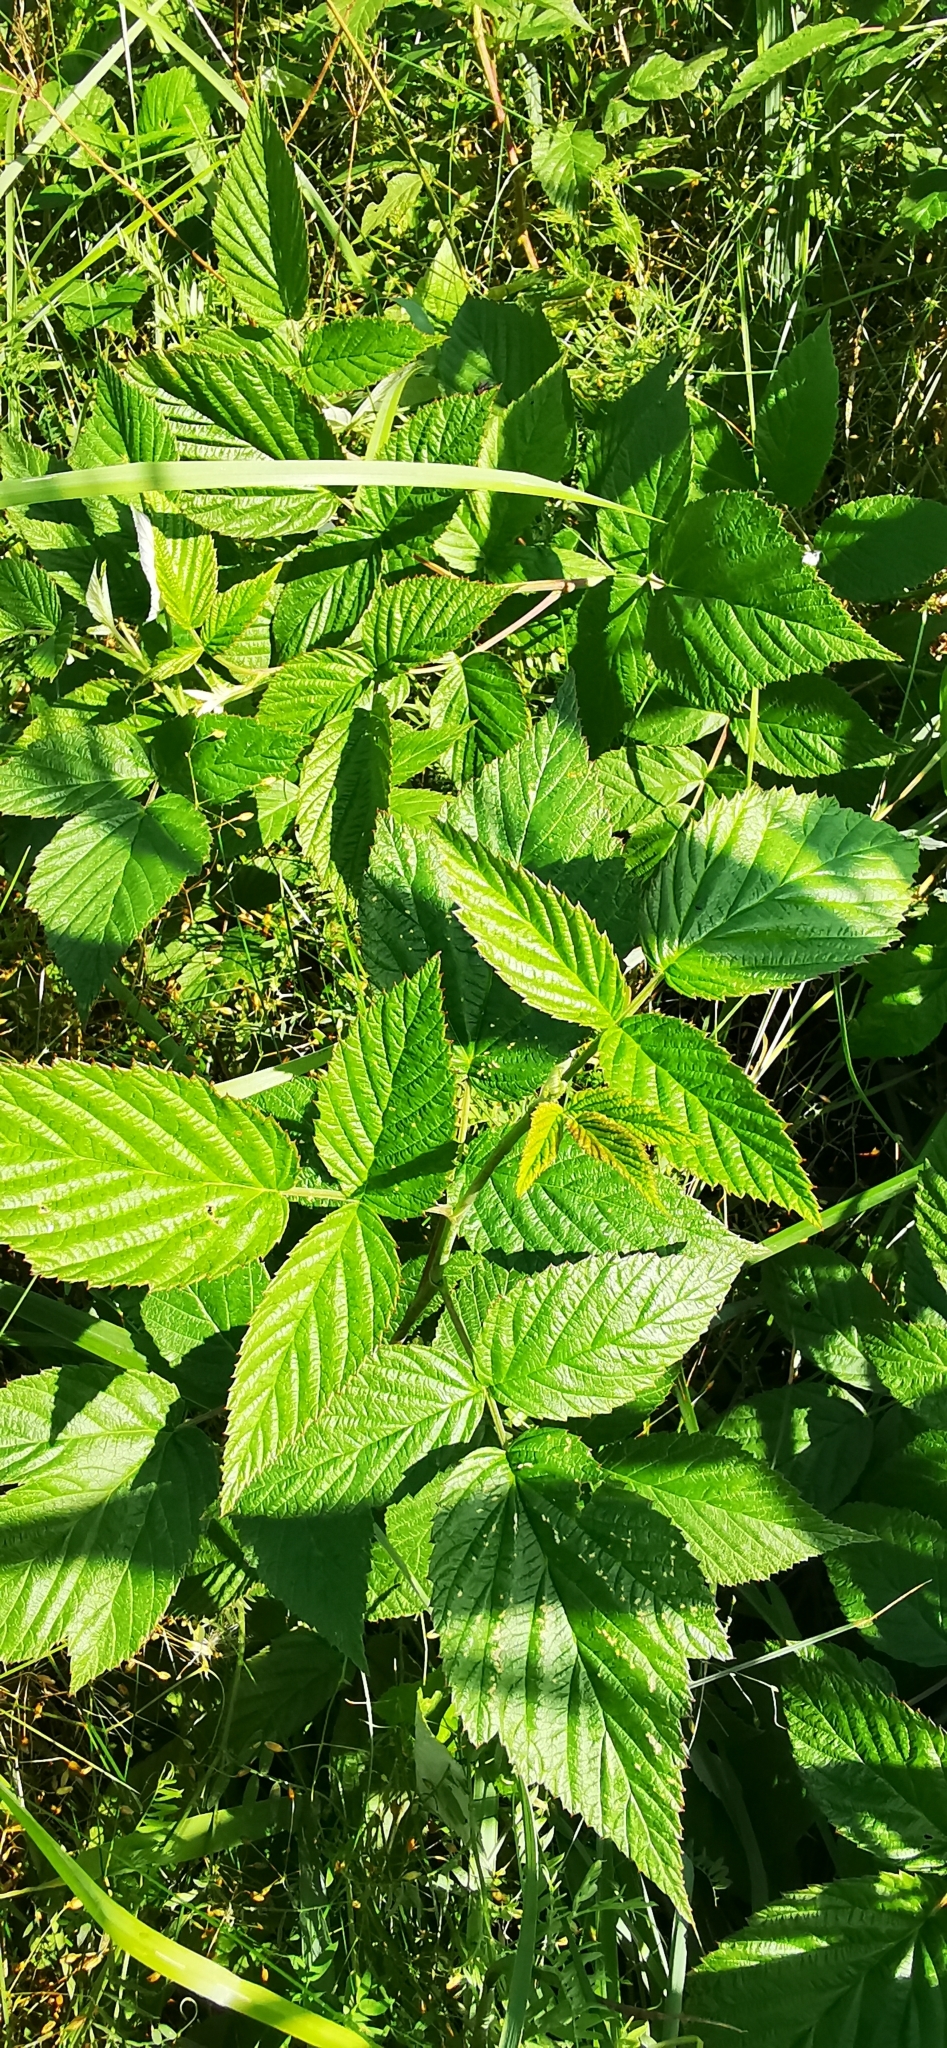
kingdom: Plantae
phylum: Tracheophyta
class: Magnoliopsida
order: Rosales
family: Rosaceae
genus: Rubus
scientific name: Rubus idaeus
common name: Raspberry
